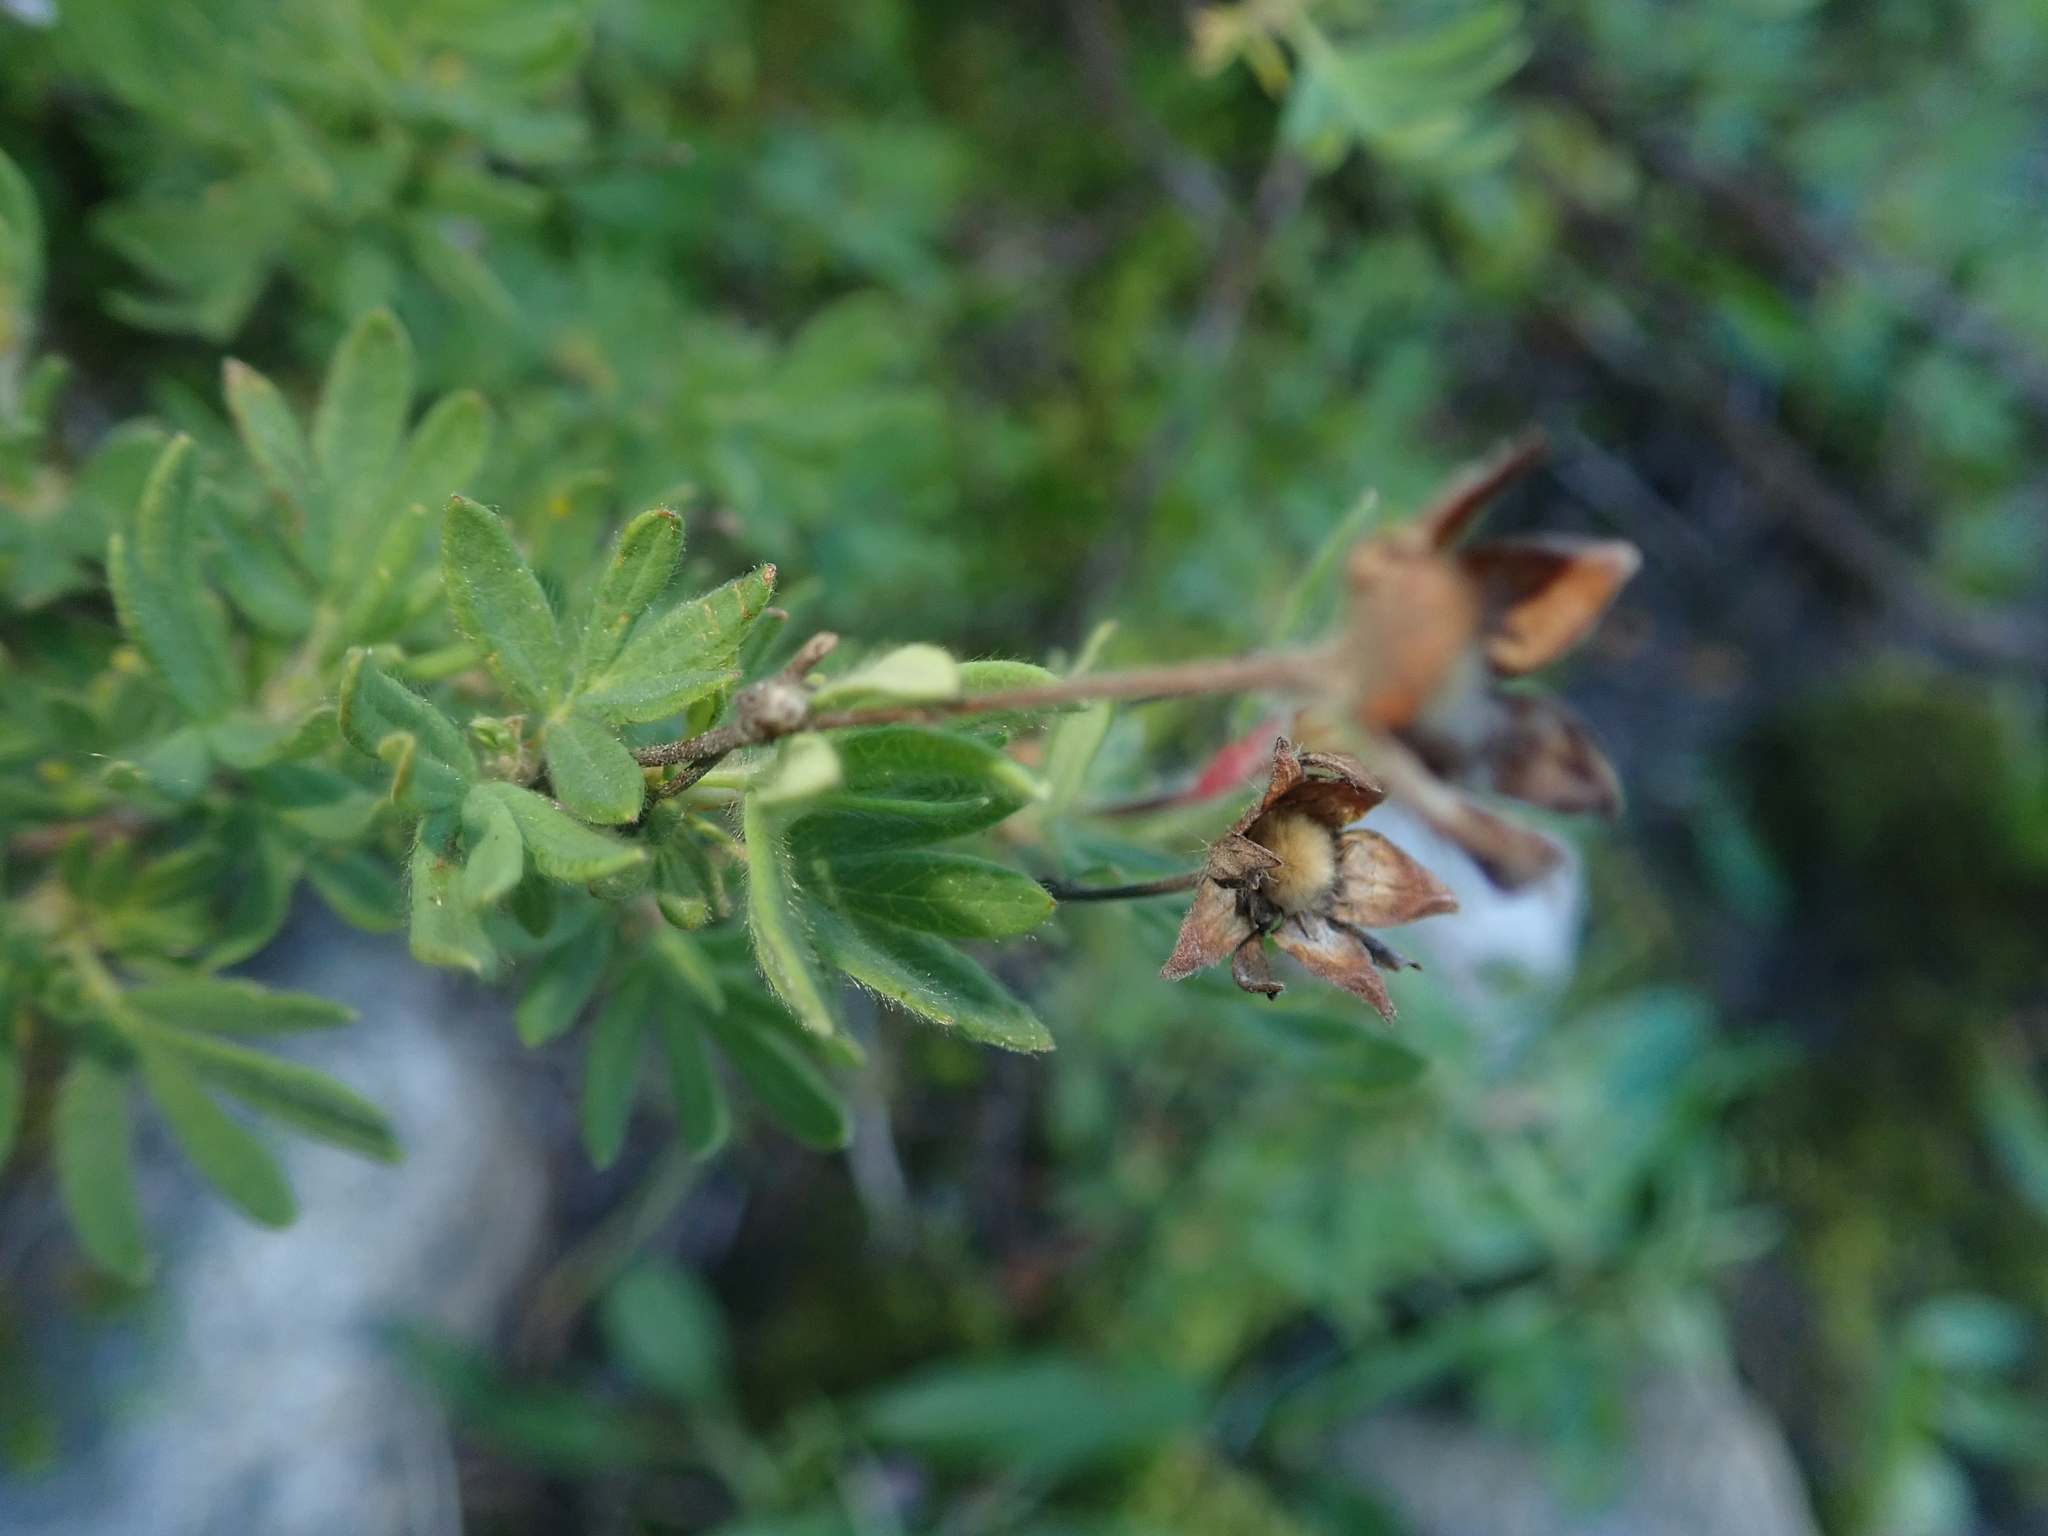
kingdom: Plantae
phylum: Tracheophyta
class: Magnoliopsida
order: Rosales
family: Rosaceae
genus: Dasiphora
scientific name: Dasiphora fruticosa
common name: Shrubby cinquefoil
